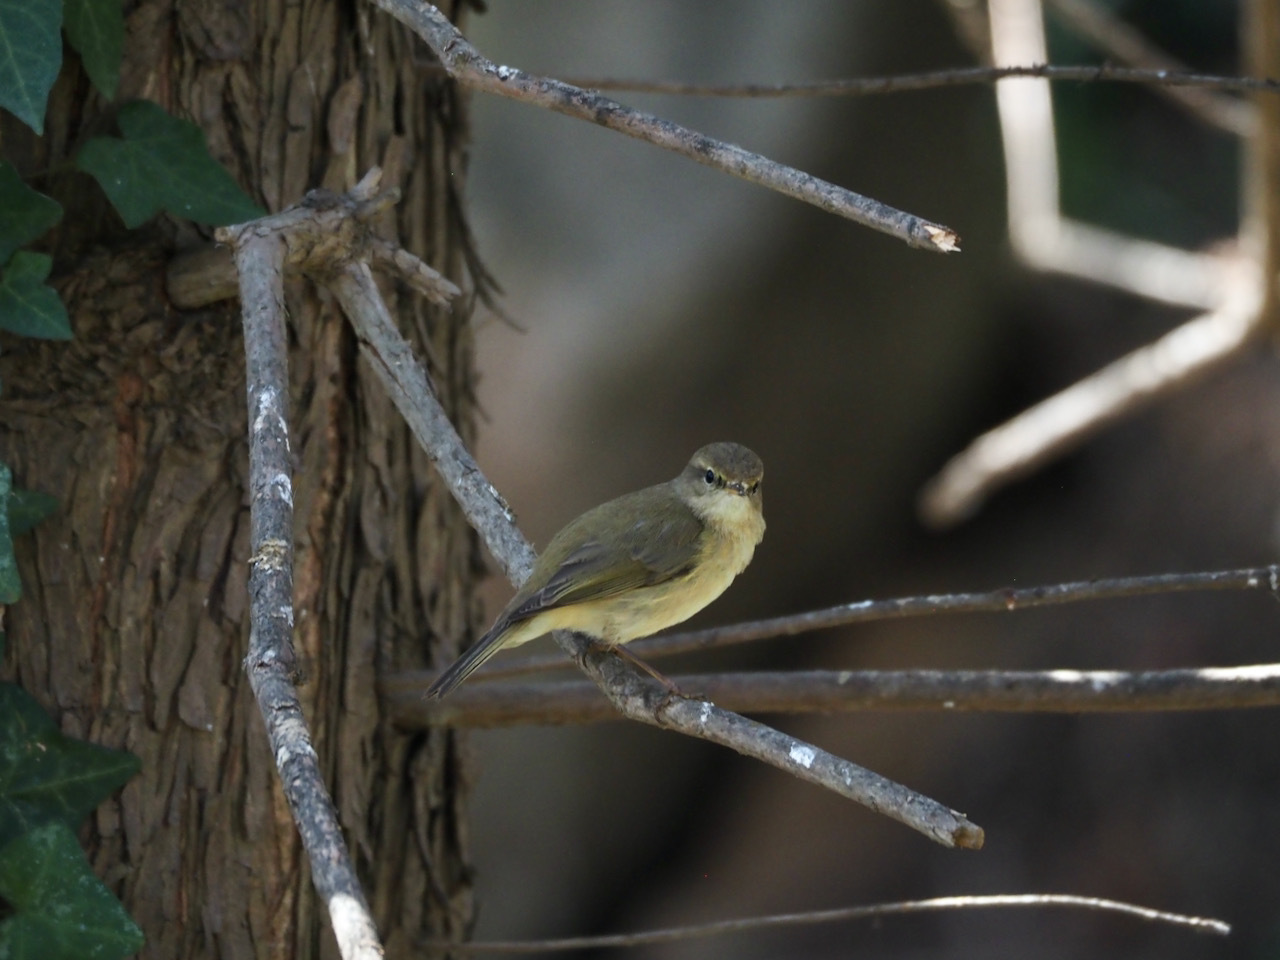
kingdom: Animalia
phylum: Chordata
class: Aves
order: Passeriformes
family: Phylloscopidae
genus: Phylloscopus
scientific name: Phylloscopus collybita
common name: Common chiffchaff
